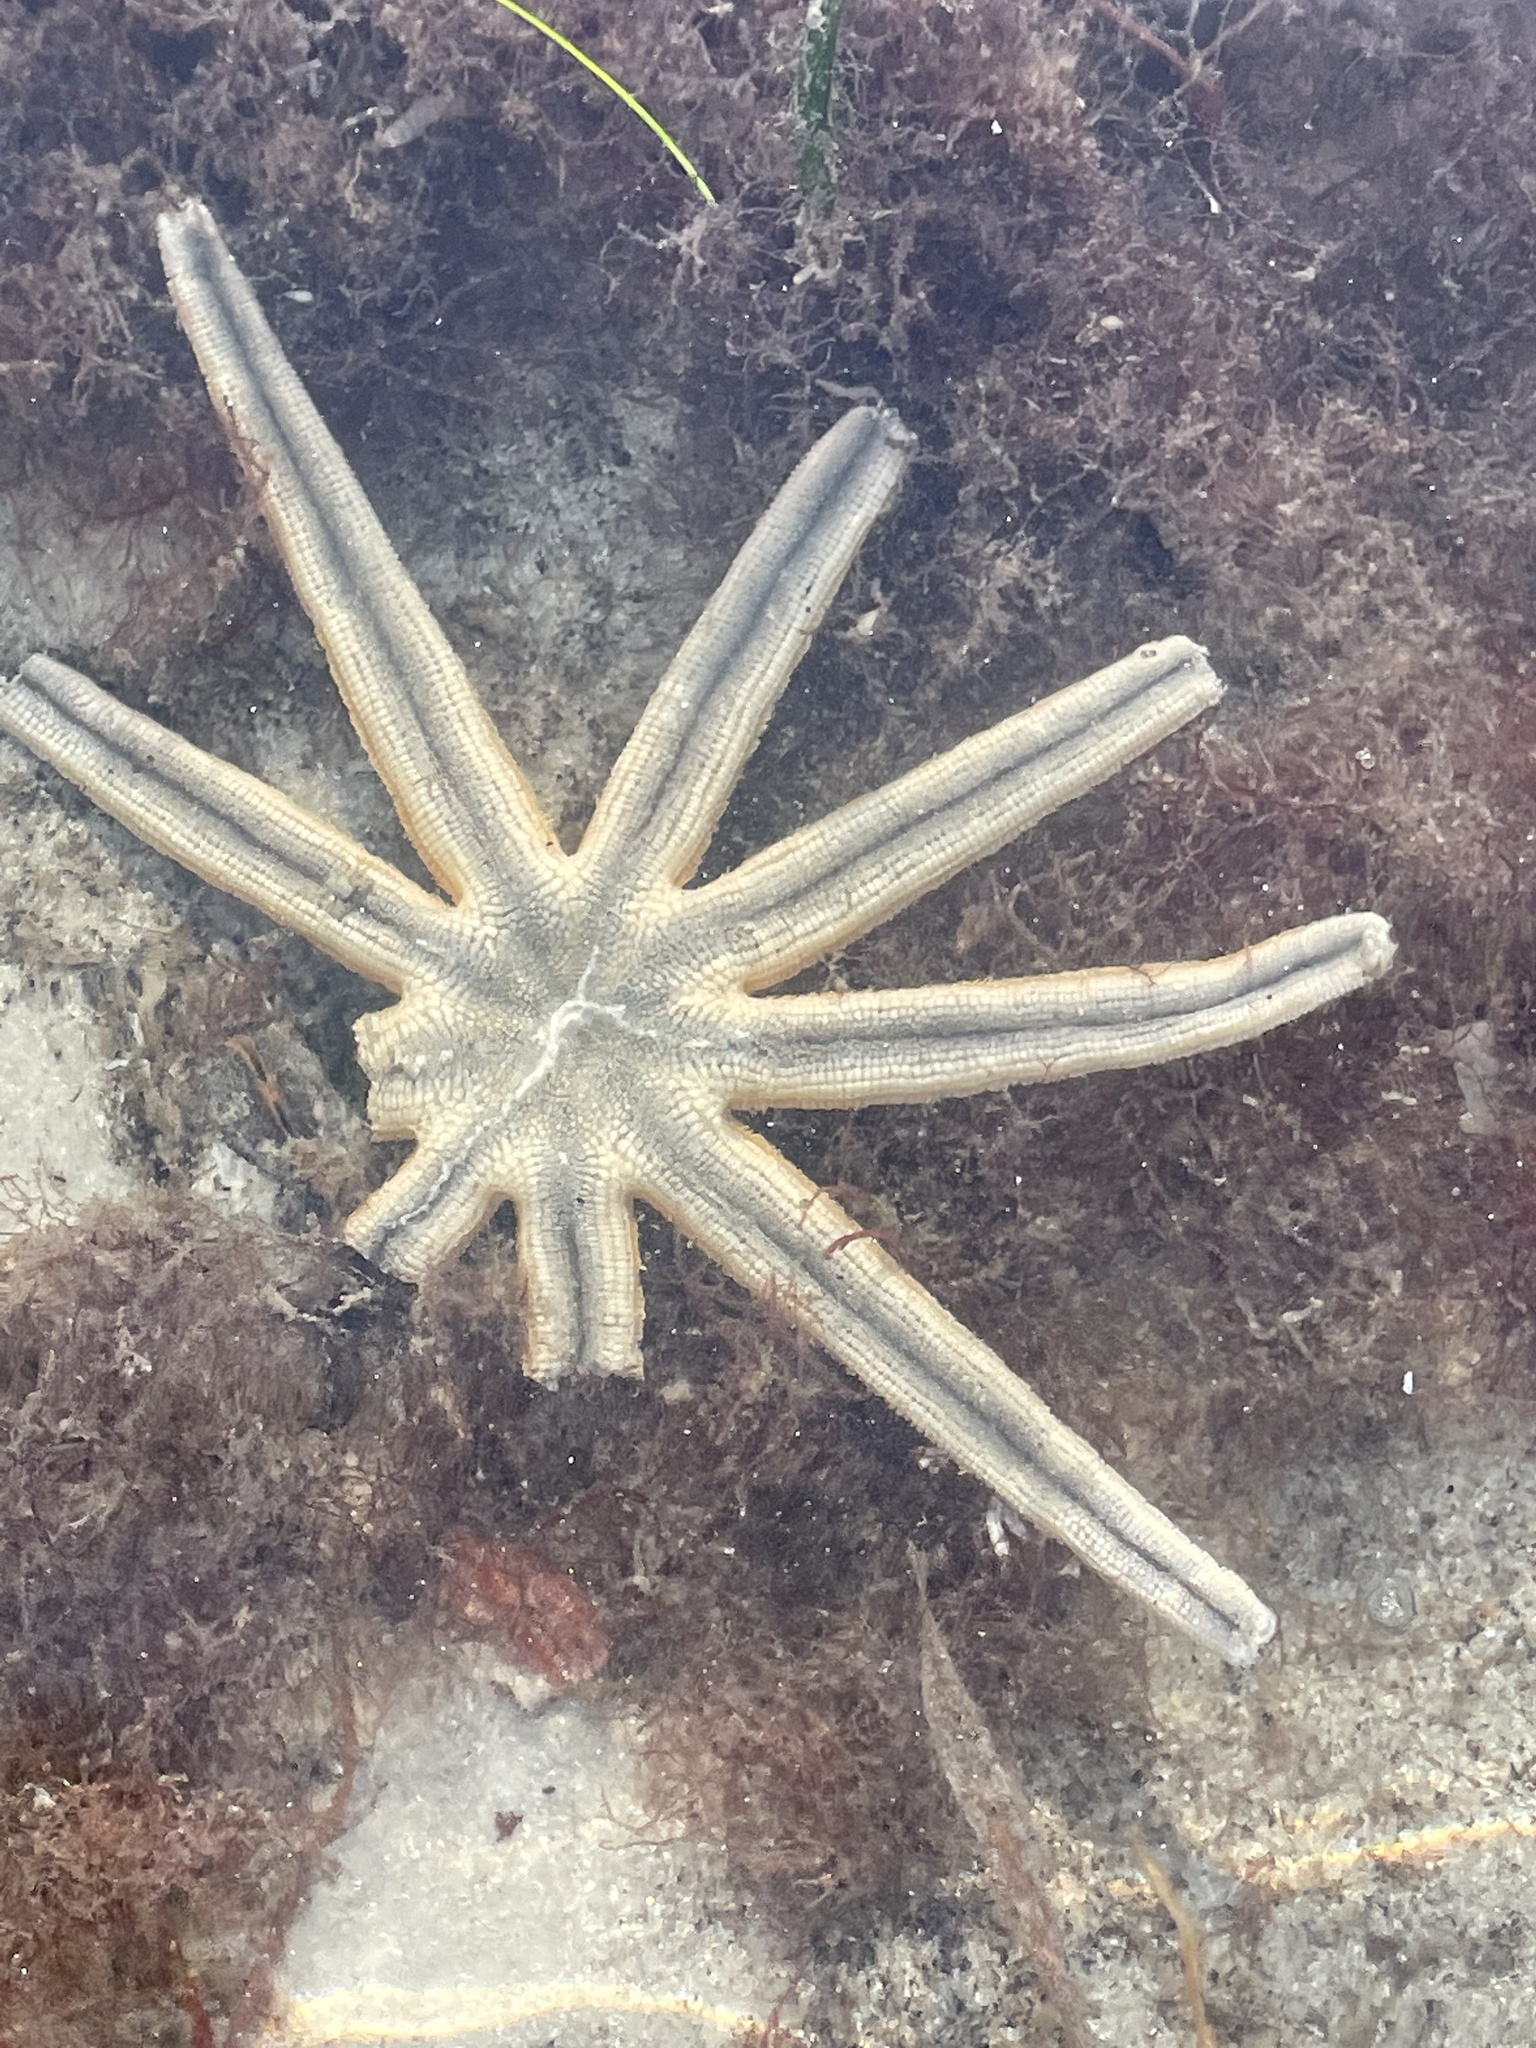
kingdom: Animalia
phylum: Echinodermata
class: Asteroidea
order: Paxillosida
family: Luidiidae
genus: Luidia
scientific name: Luidia senegalensis
